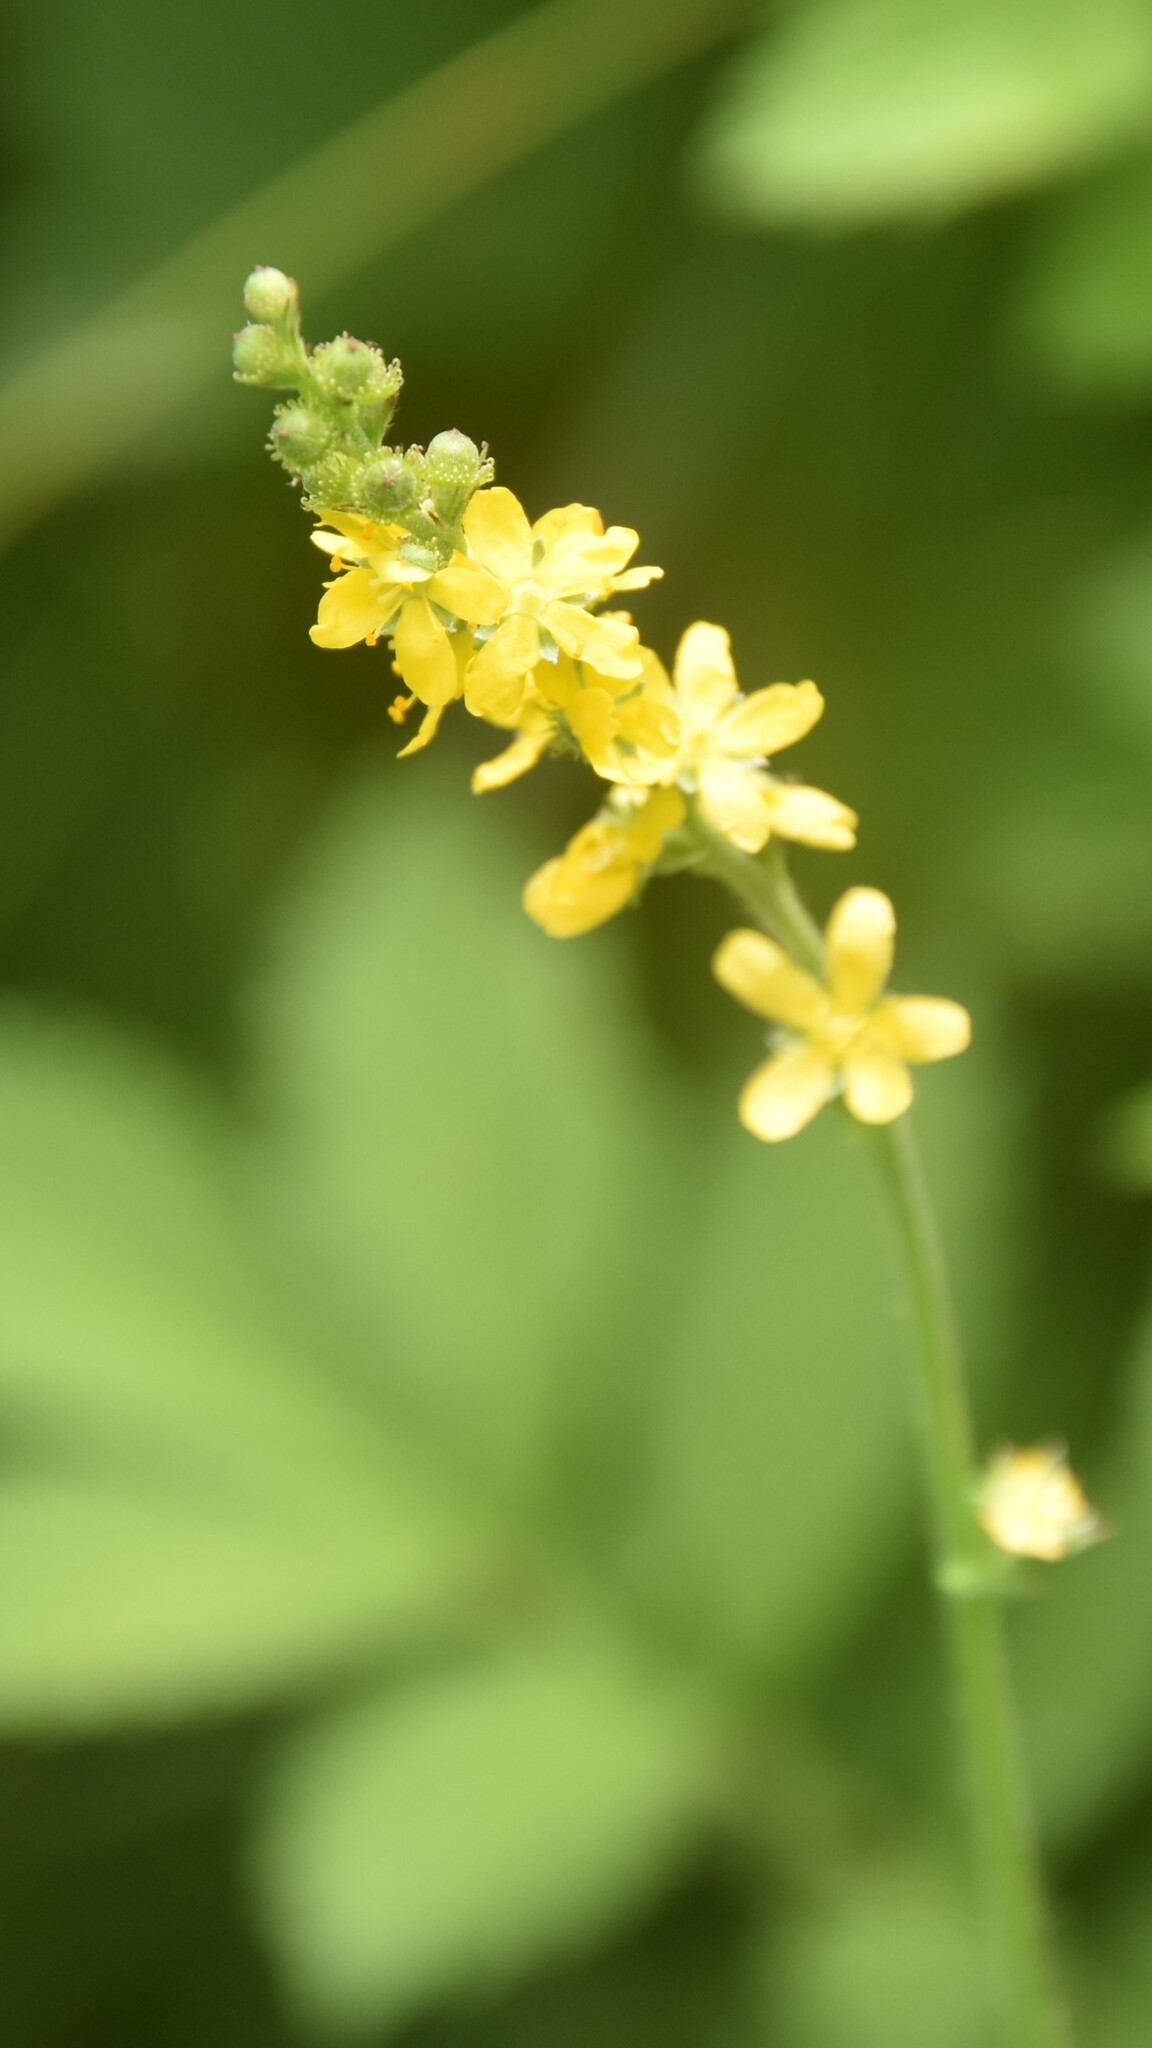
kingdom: Plantae
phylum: Tracheophyta
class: Magnoliopsida
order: Rosales
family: Rosaceae
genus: Agrimonia
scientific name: Agrimonia pilosa
